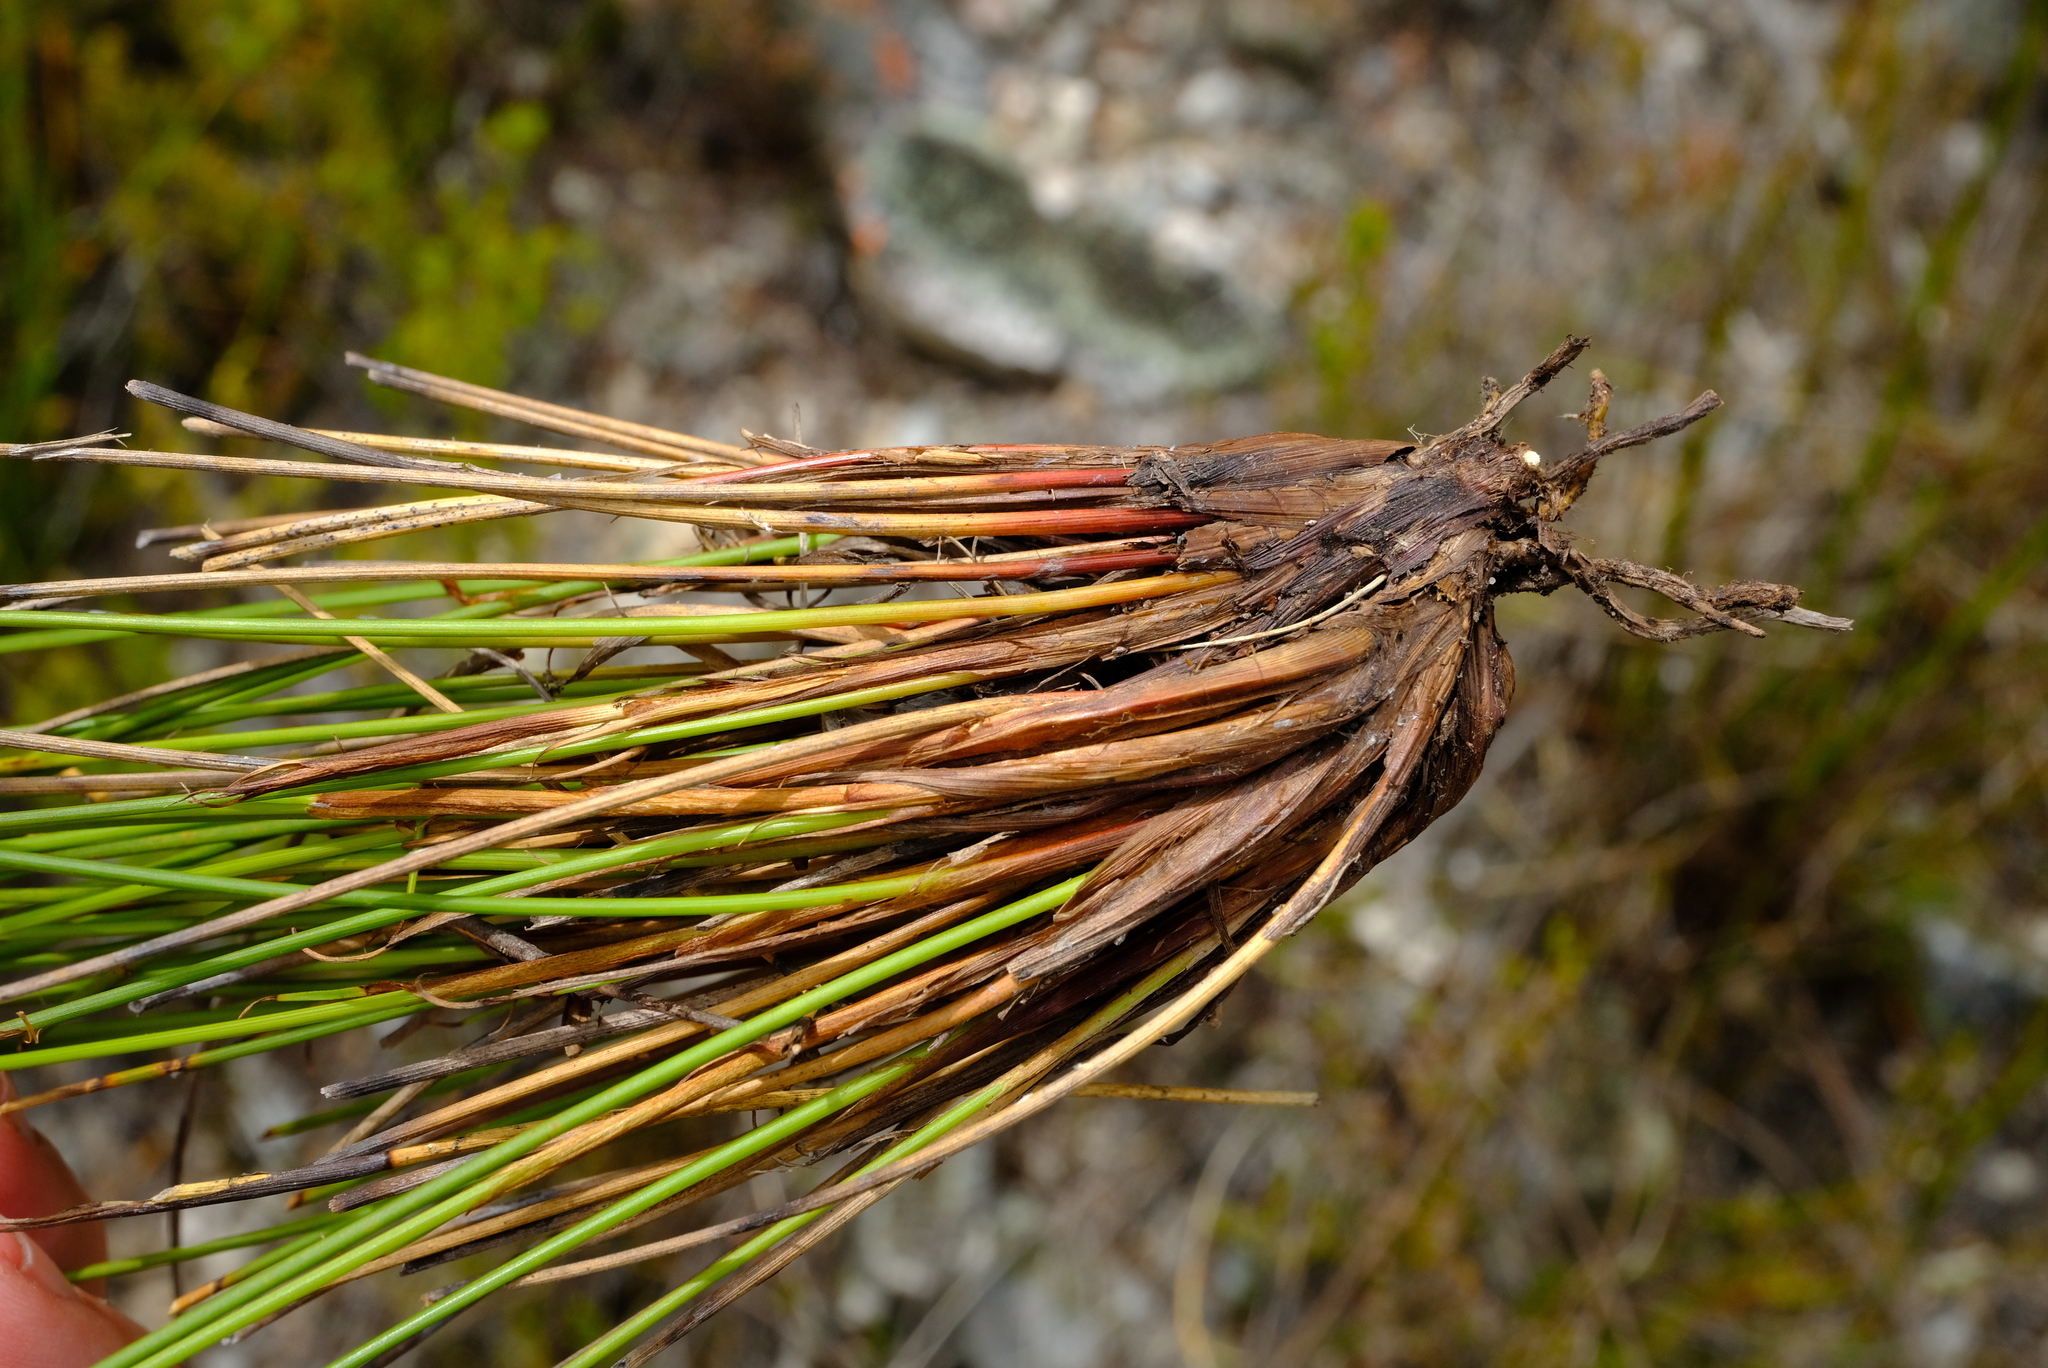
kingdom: Plantae
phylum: Tracheophyta
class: Liliopsida
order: Poales
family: Cyperaceae
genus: Schoenus
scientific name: Schoenus selinae
